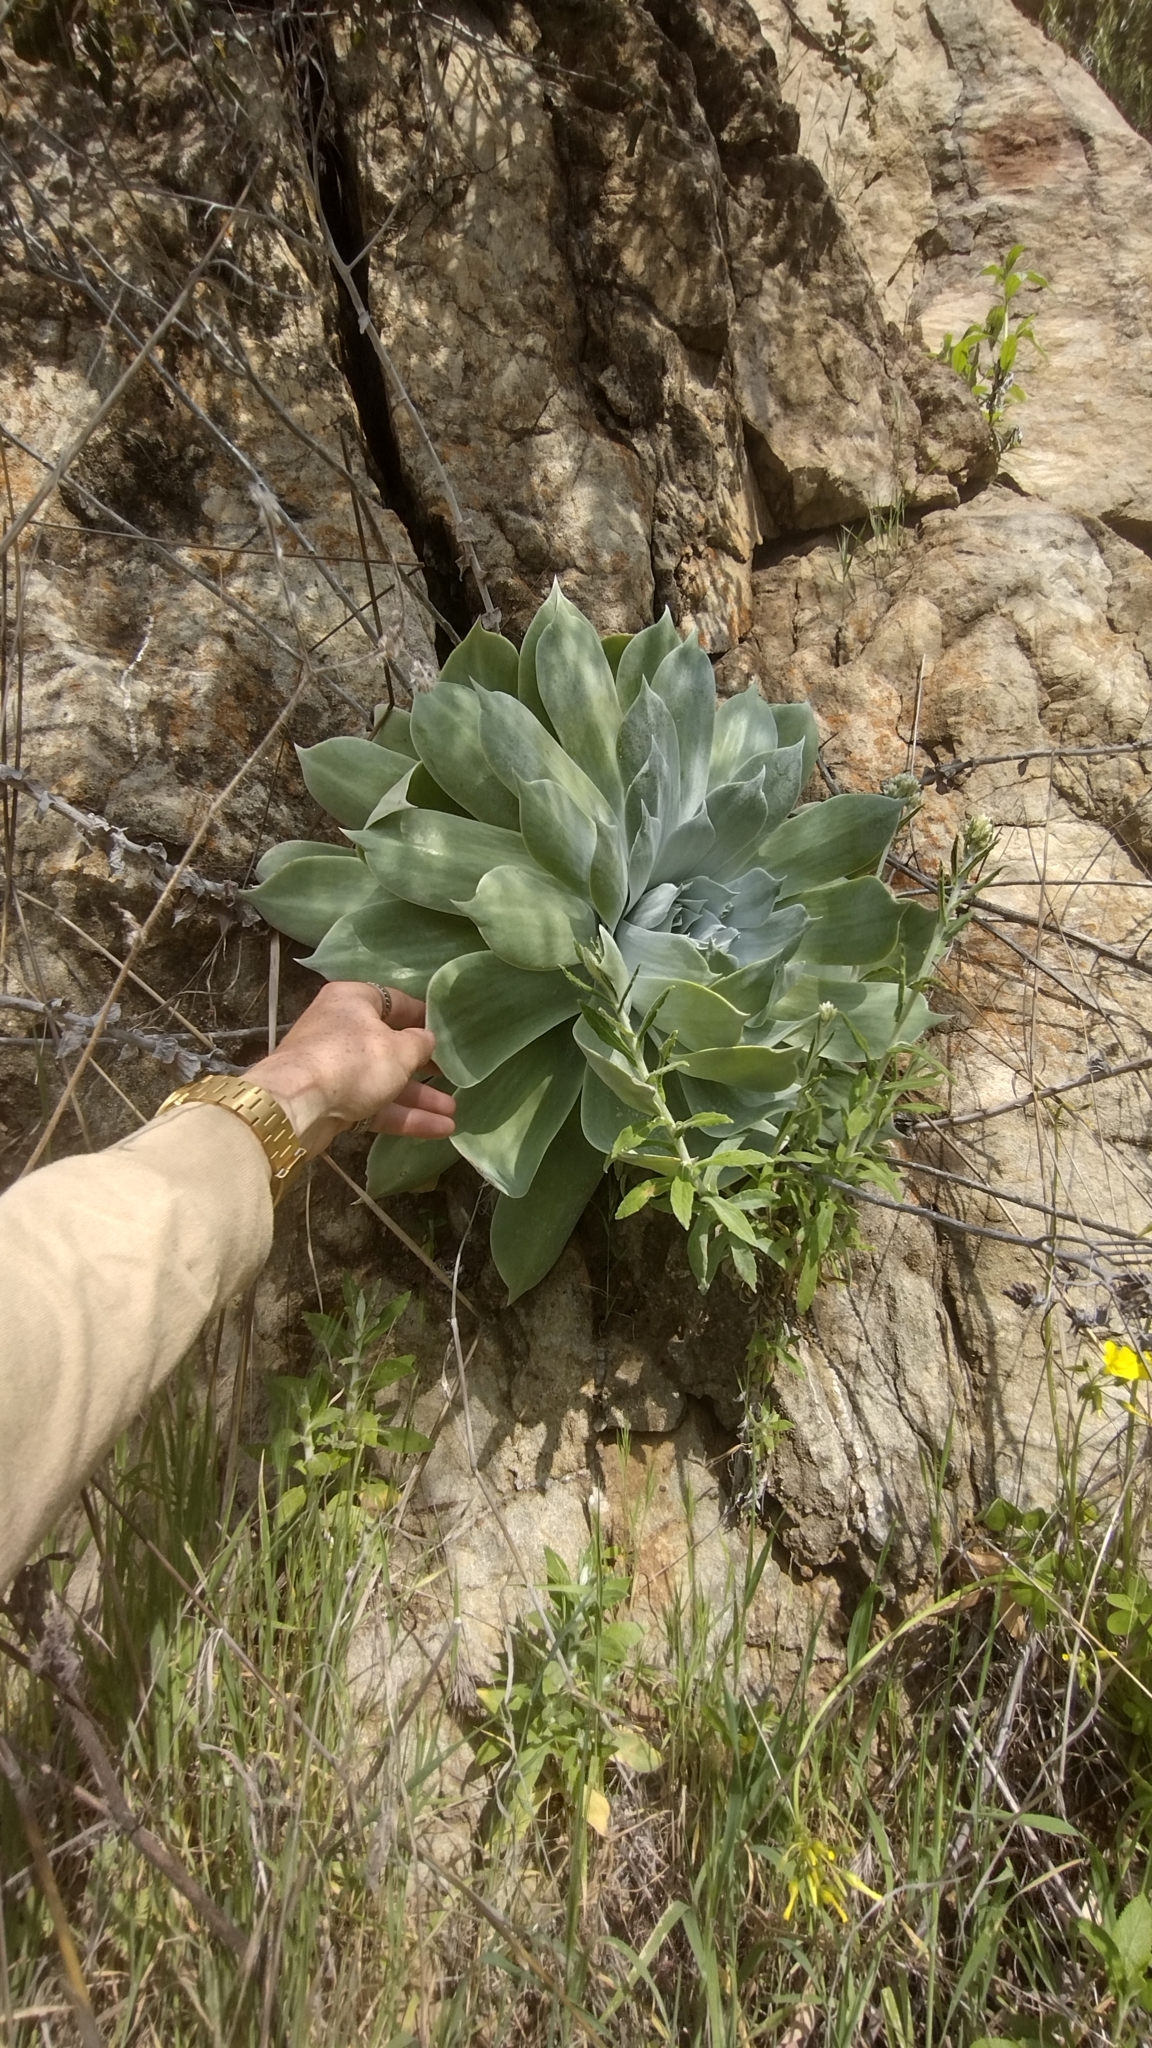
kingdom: Plantae
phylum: Tracheophyta
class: Magnoliopsida
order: Saxifragales
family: Crassulaceae
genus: Dudleya
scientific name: Dudleya pulverulenta
